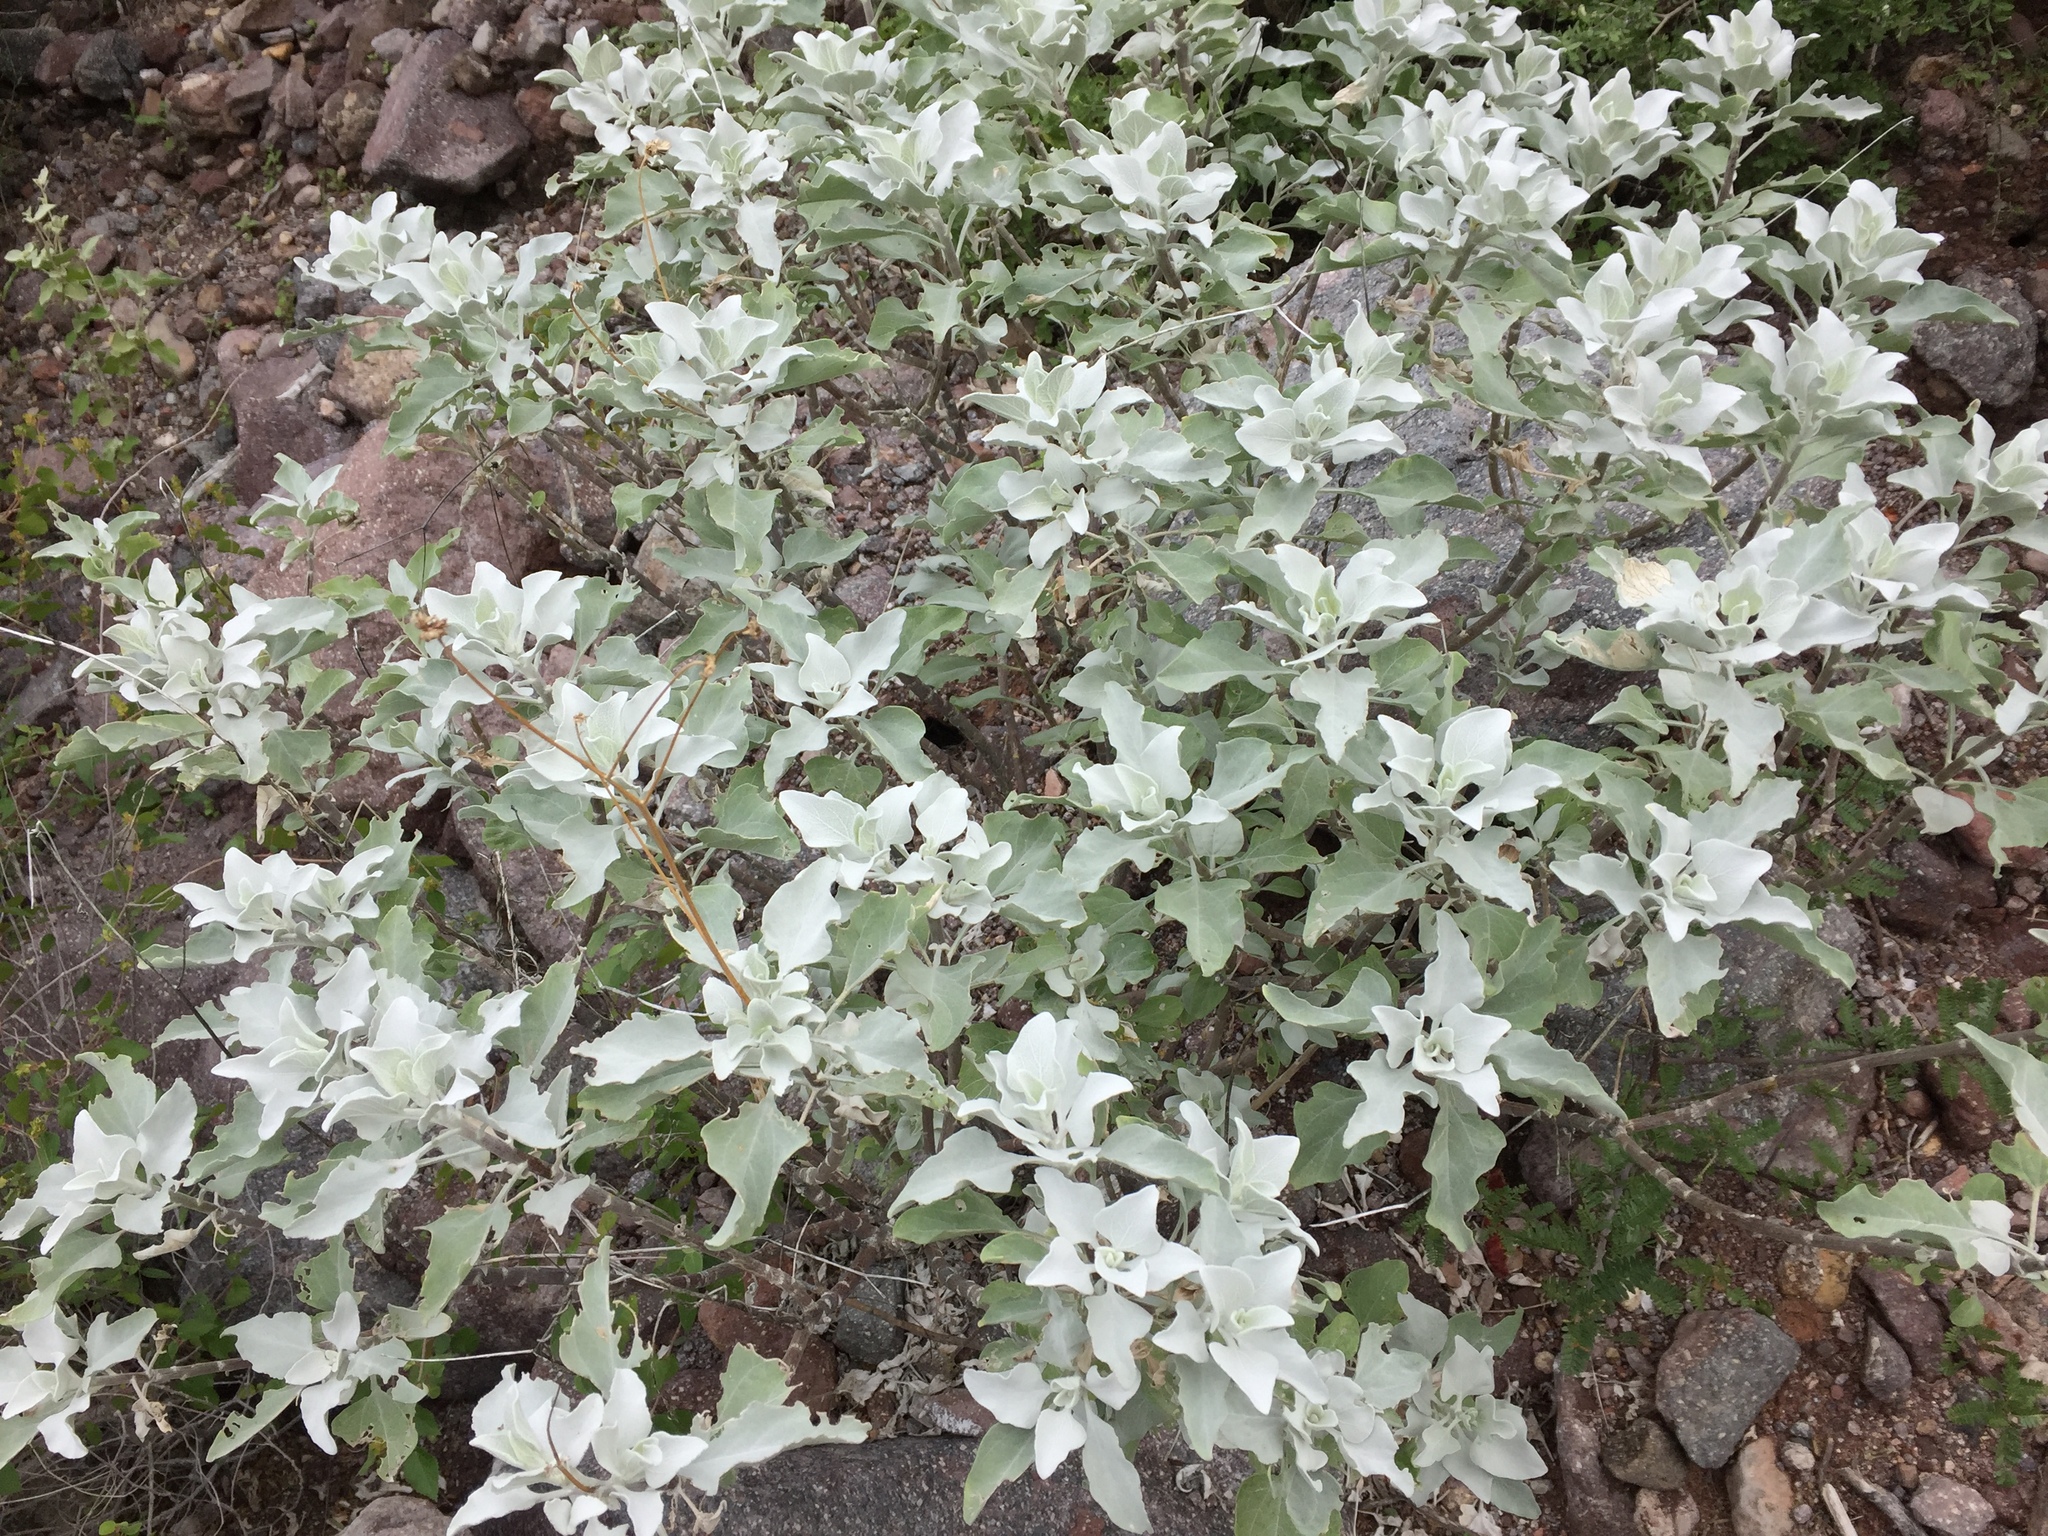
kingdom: Plantae
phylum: Tracheophyta
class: Magnoliopsida
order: Asterales
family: Asteraceae
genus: Encelia
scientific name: Encelia farinosa
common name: Brittlebush
